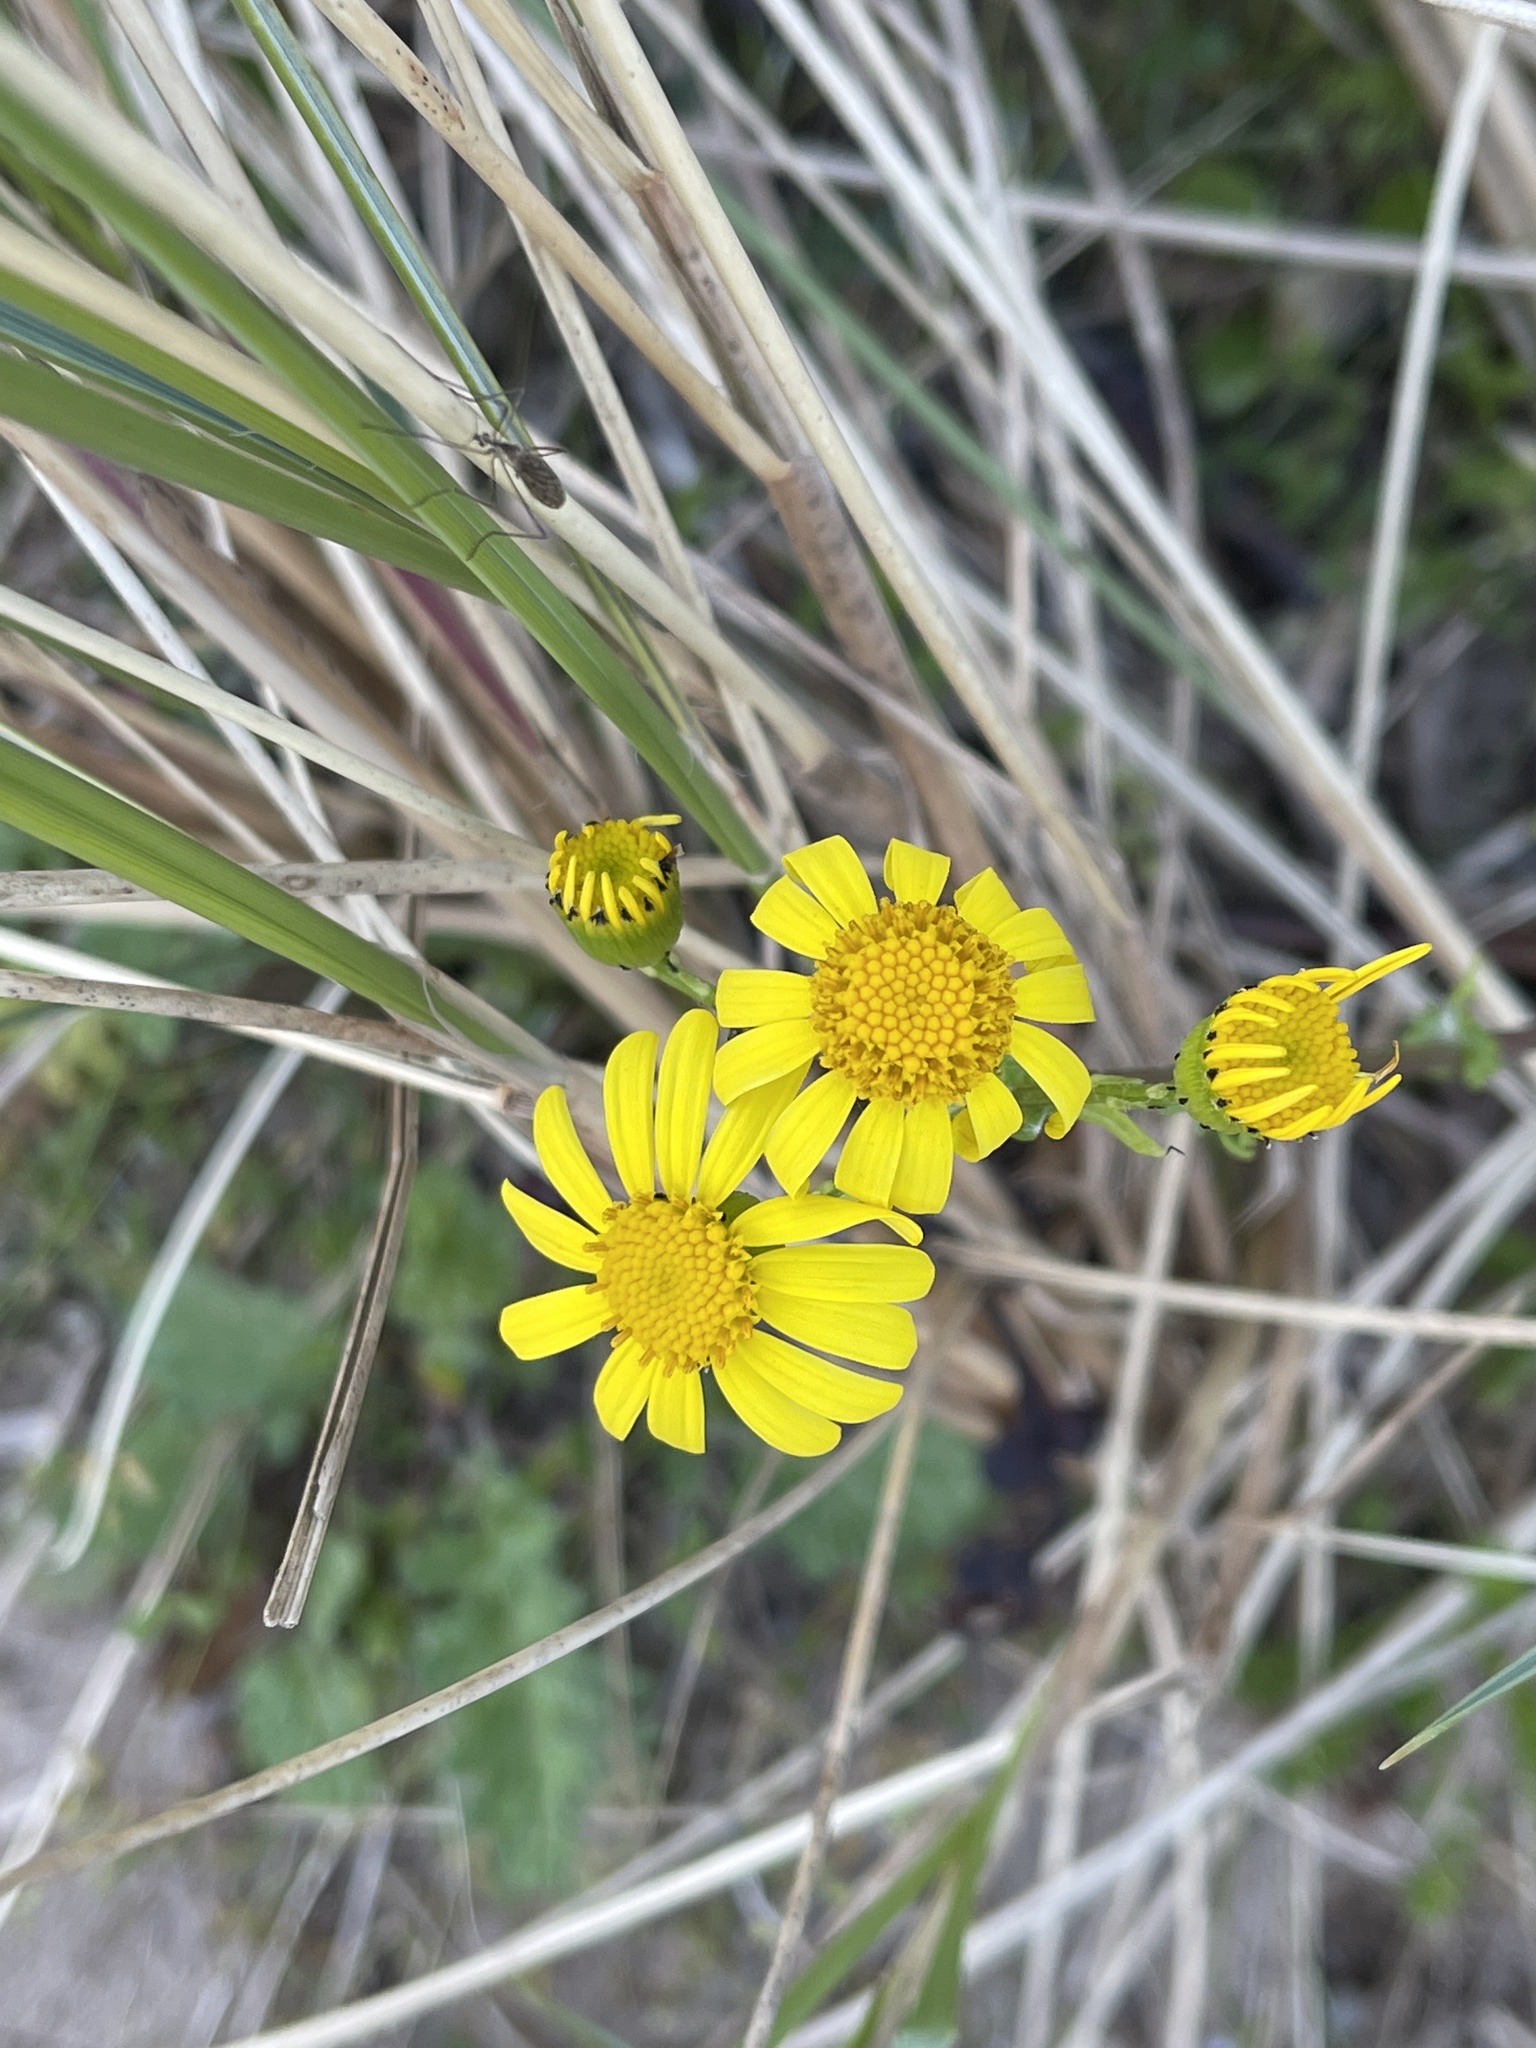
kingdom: Plantae
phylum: Tracheophyta
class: Magnoliopsida
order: Asterales
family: Asteraceae
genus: Senecio
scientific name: Senecio squalidus
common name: Oxford ragwort
